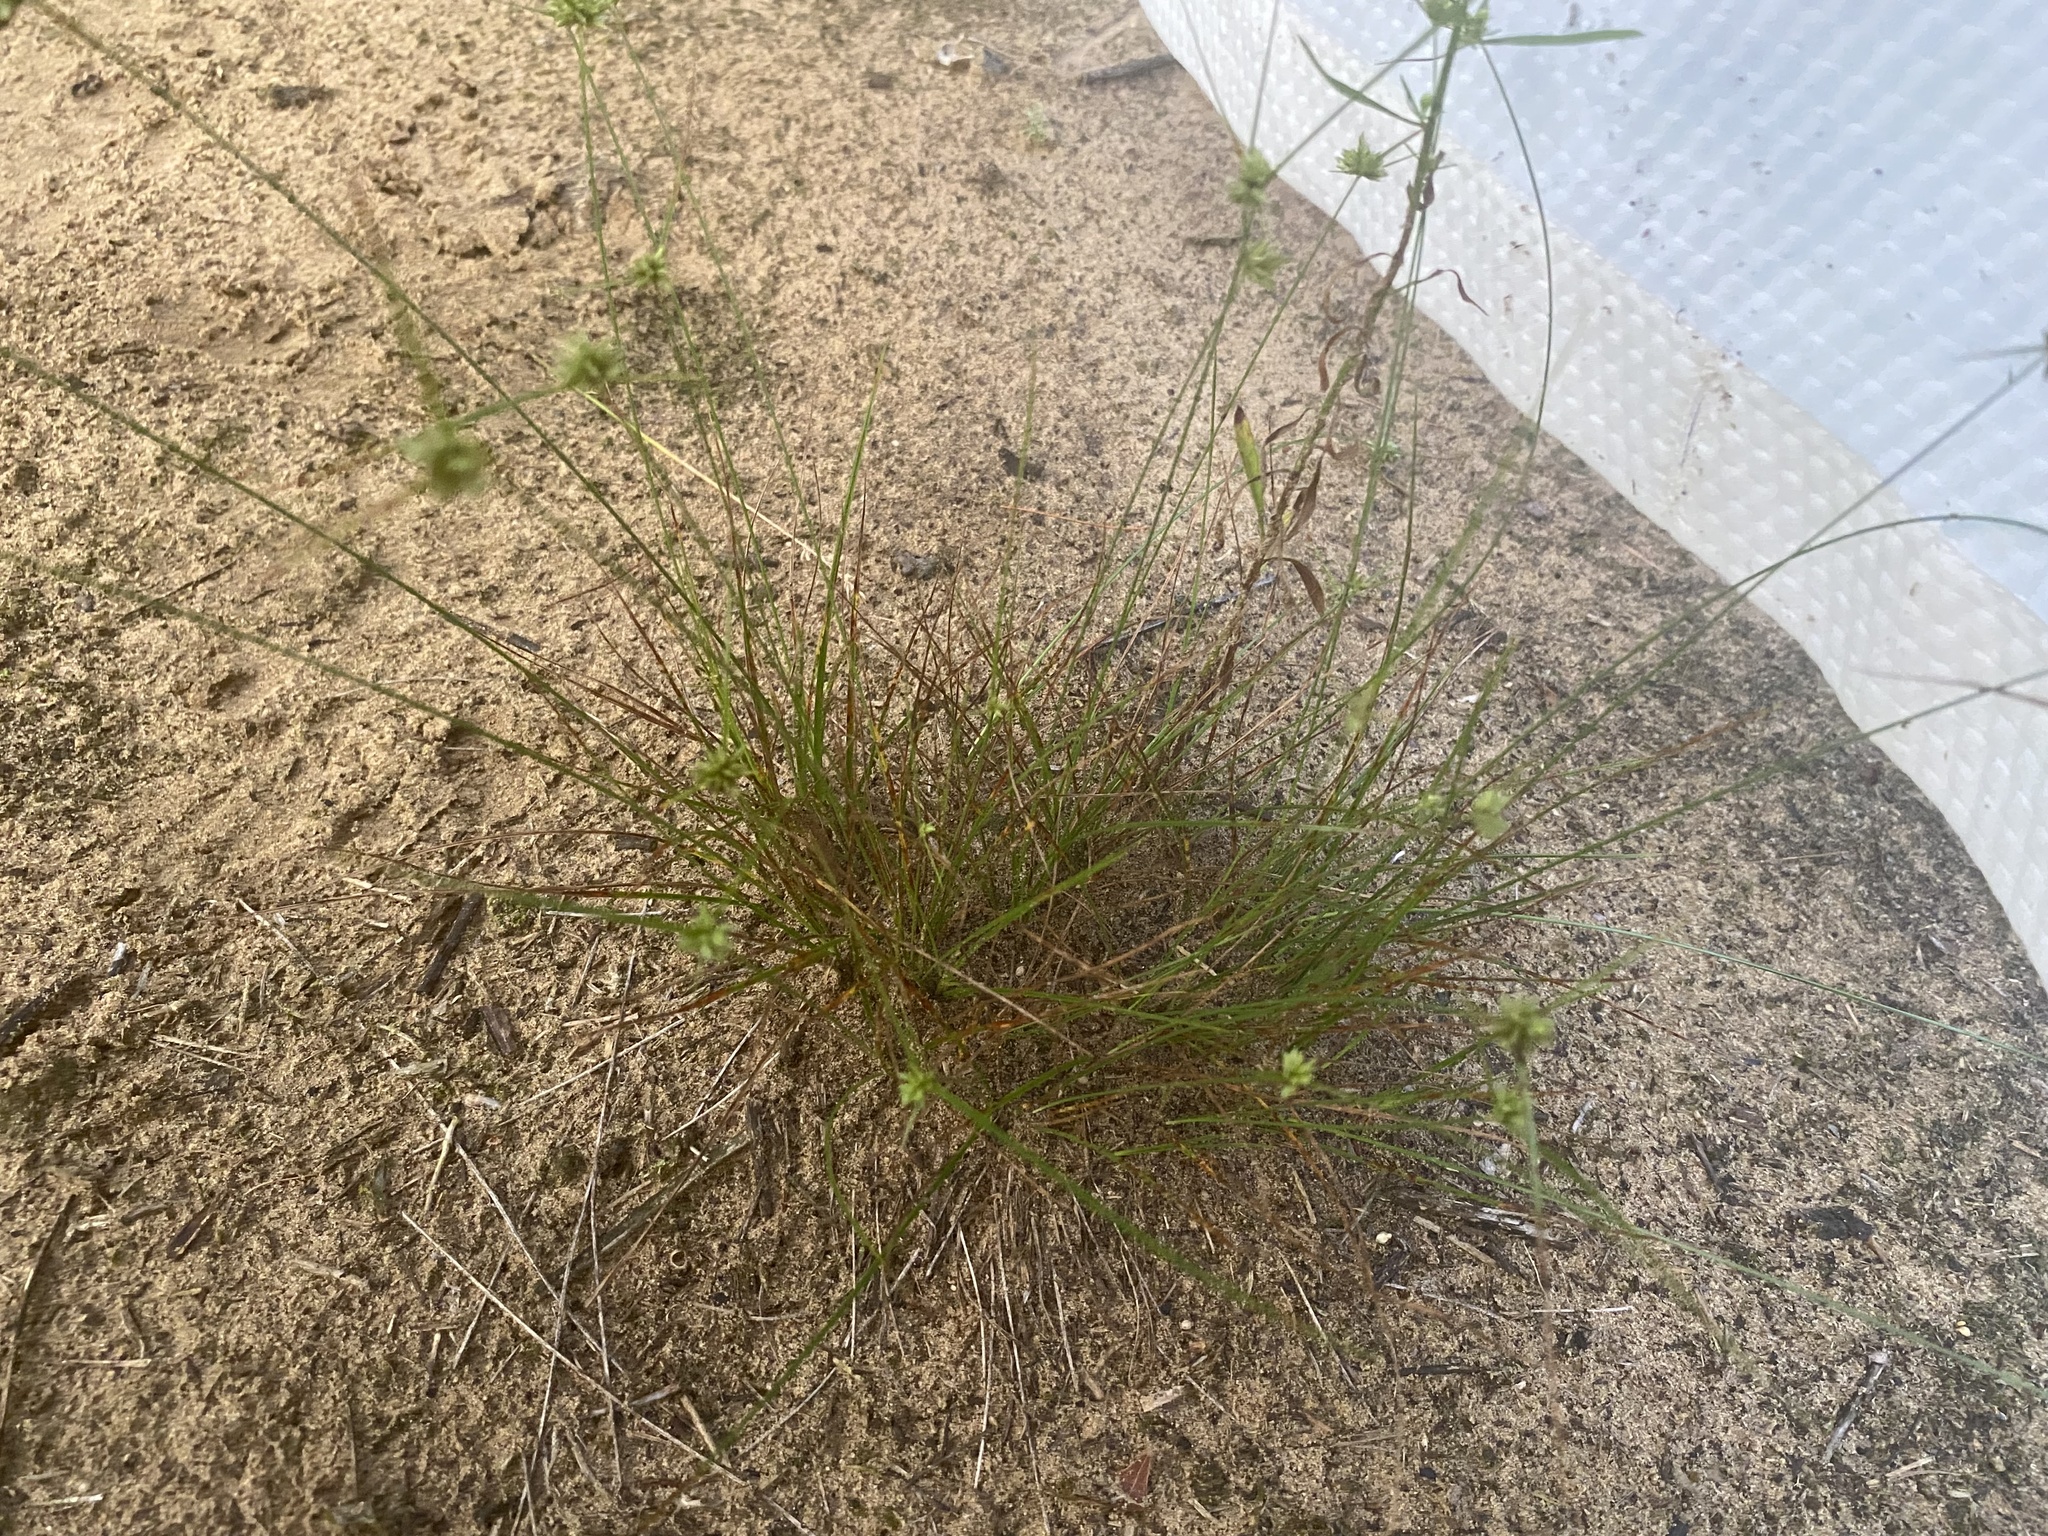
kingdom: Plantae
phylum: Tracheophyta
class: Liliopsida
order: Poales
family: Cyperaceae
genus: Cyperus
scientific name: Cyperus lupulinus
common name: Great plains flatsedge
